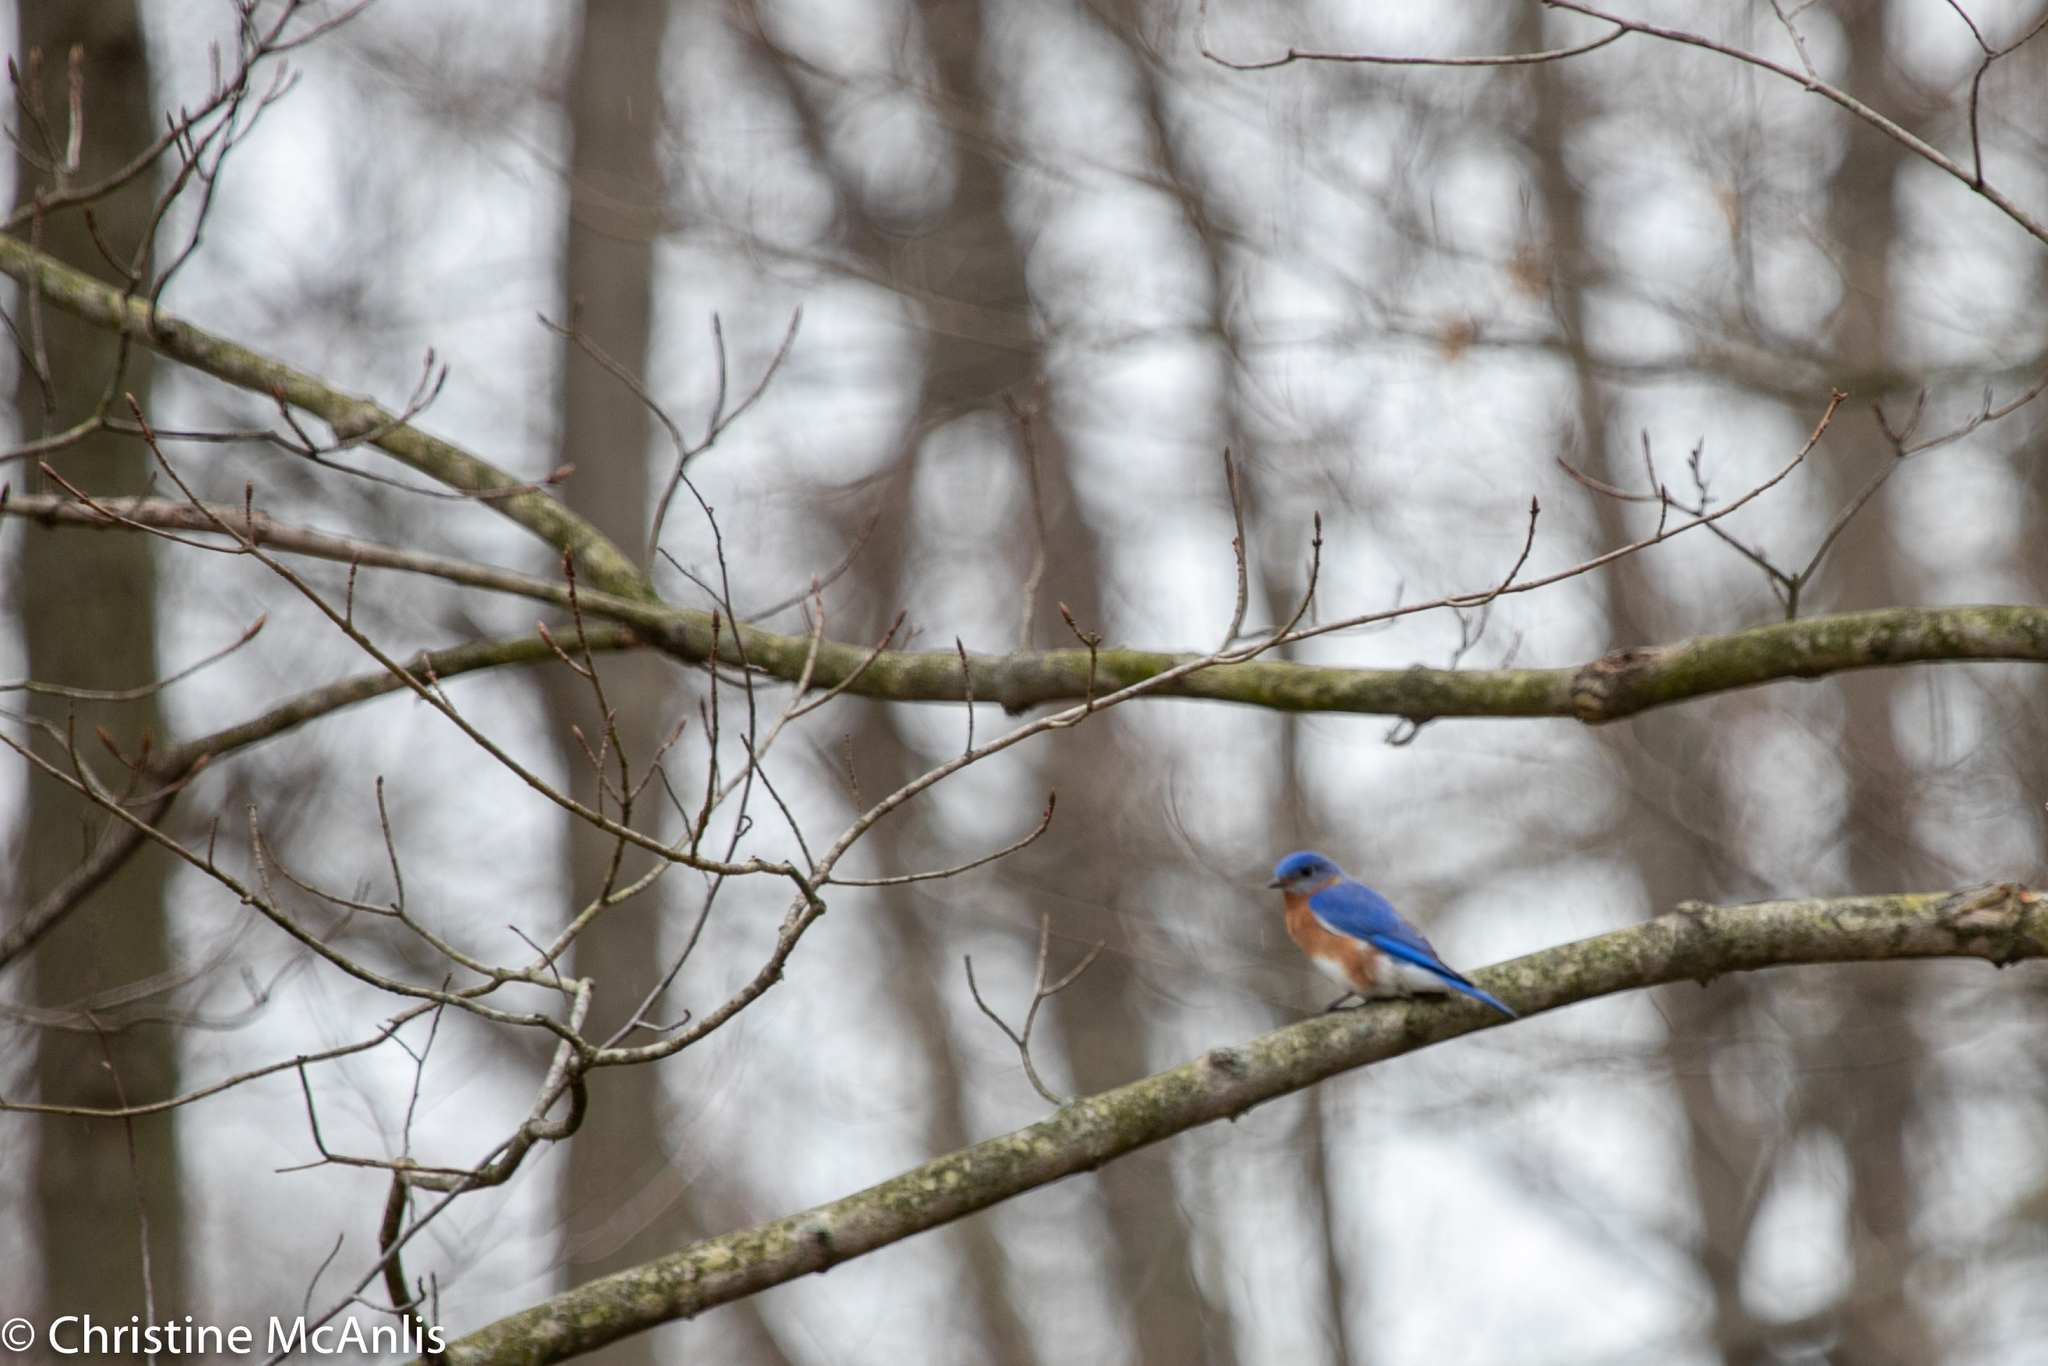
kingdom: Animalia
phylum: Chordata
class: Aves
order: Passeriformes
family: Turdidae
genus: Sialia
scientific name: Sialia sialis
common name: Eastern bluebird
